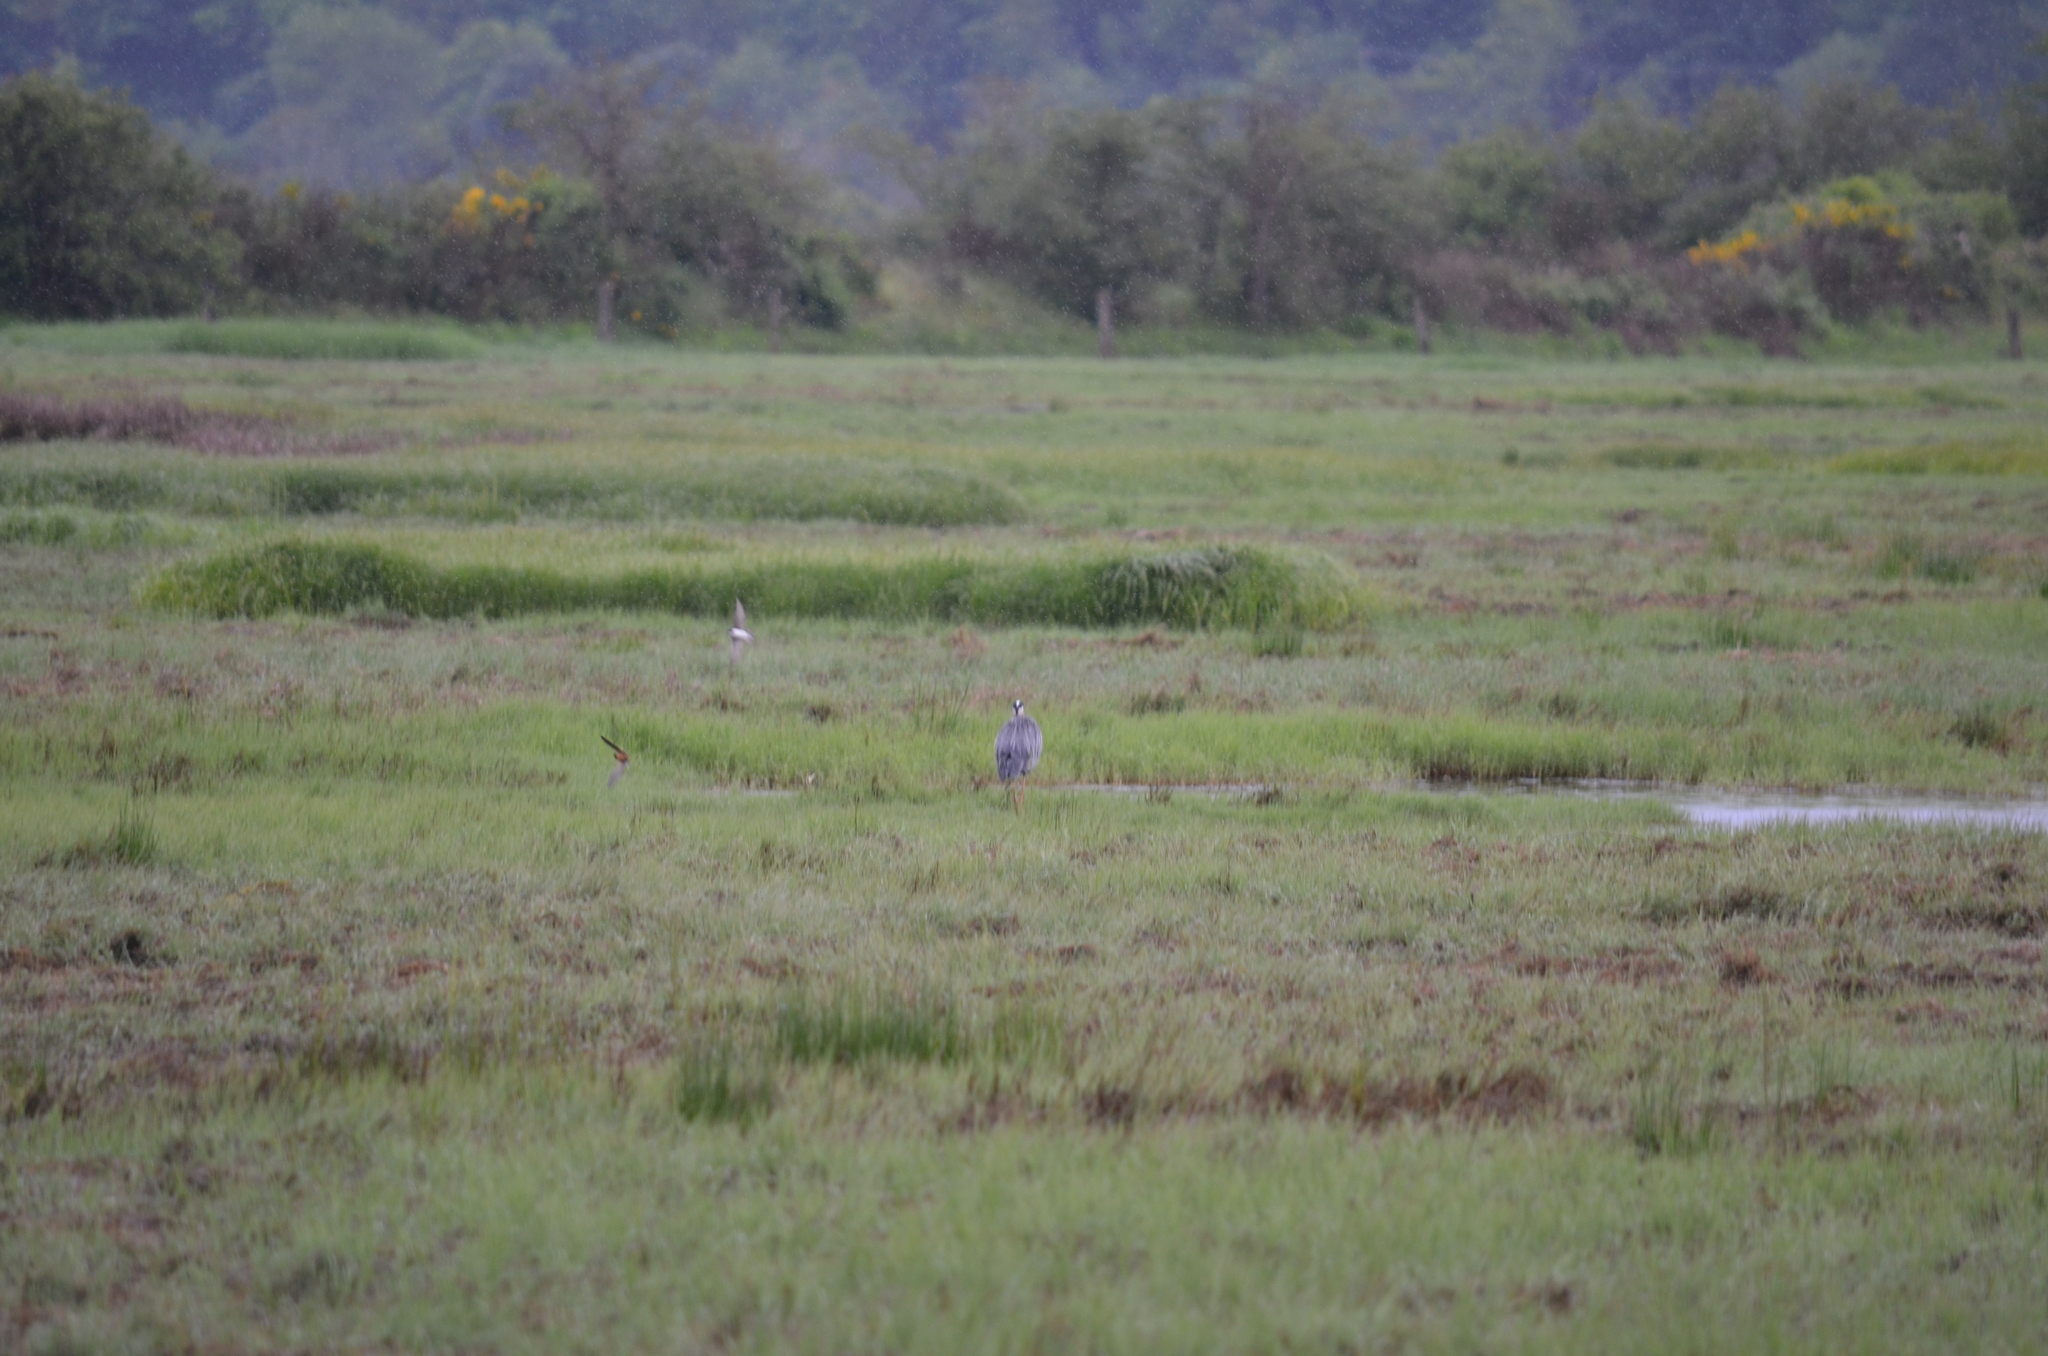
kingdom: Animalia
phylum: Chordata
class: Aves
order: Pelecaniformes
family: Ardeidae
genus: Ardea
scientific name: Ardea herodias
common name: Great blue heron
